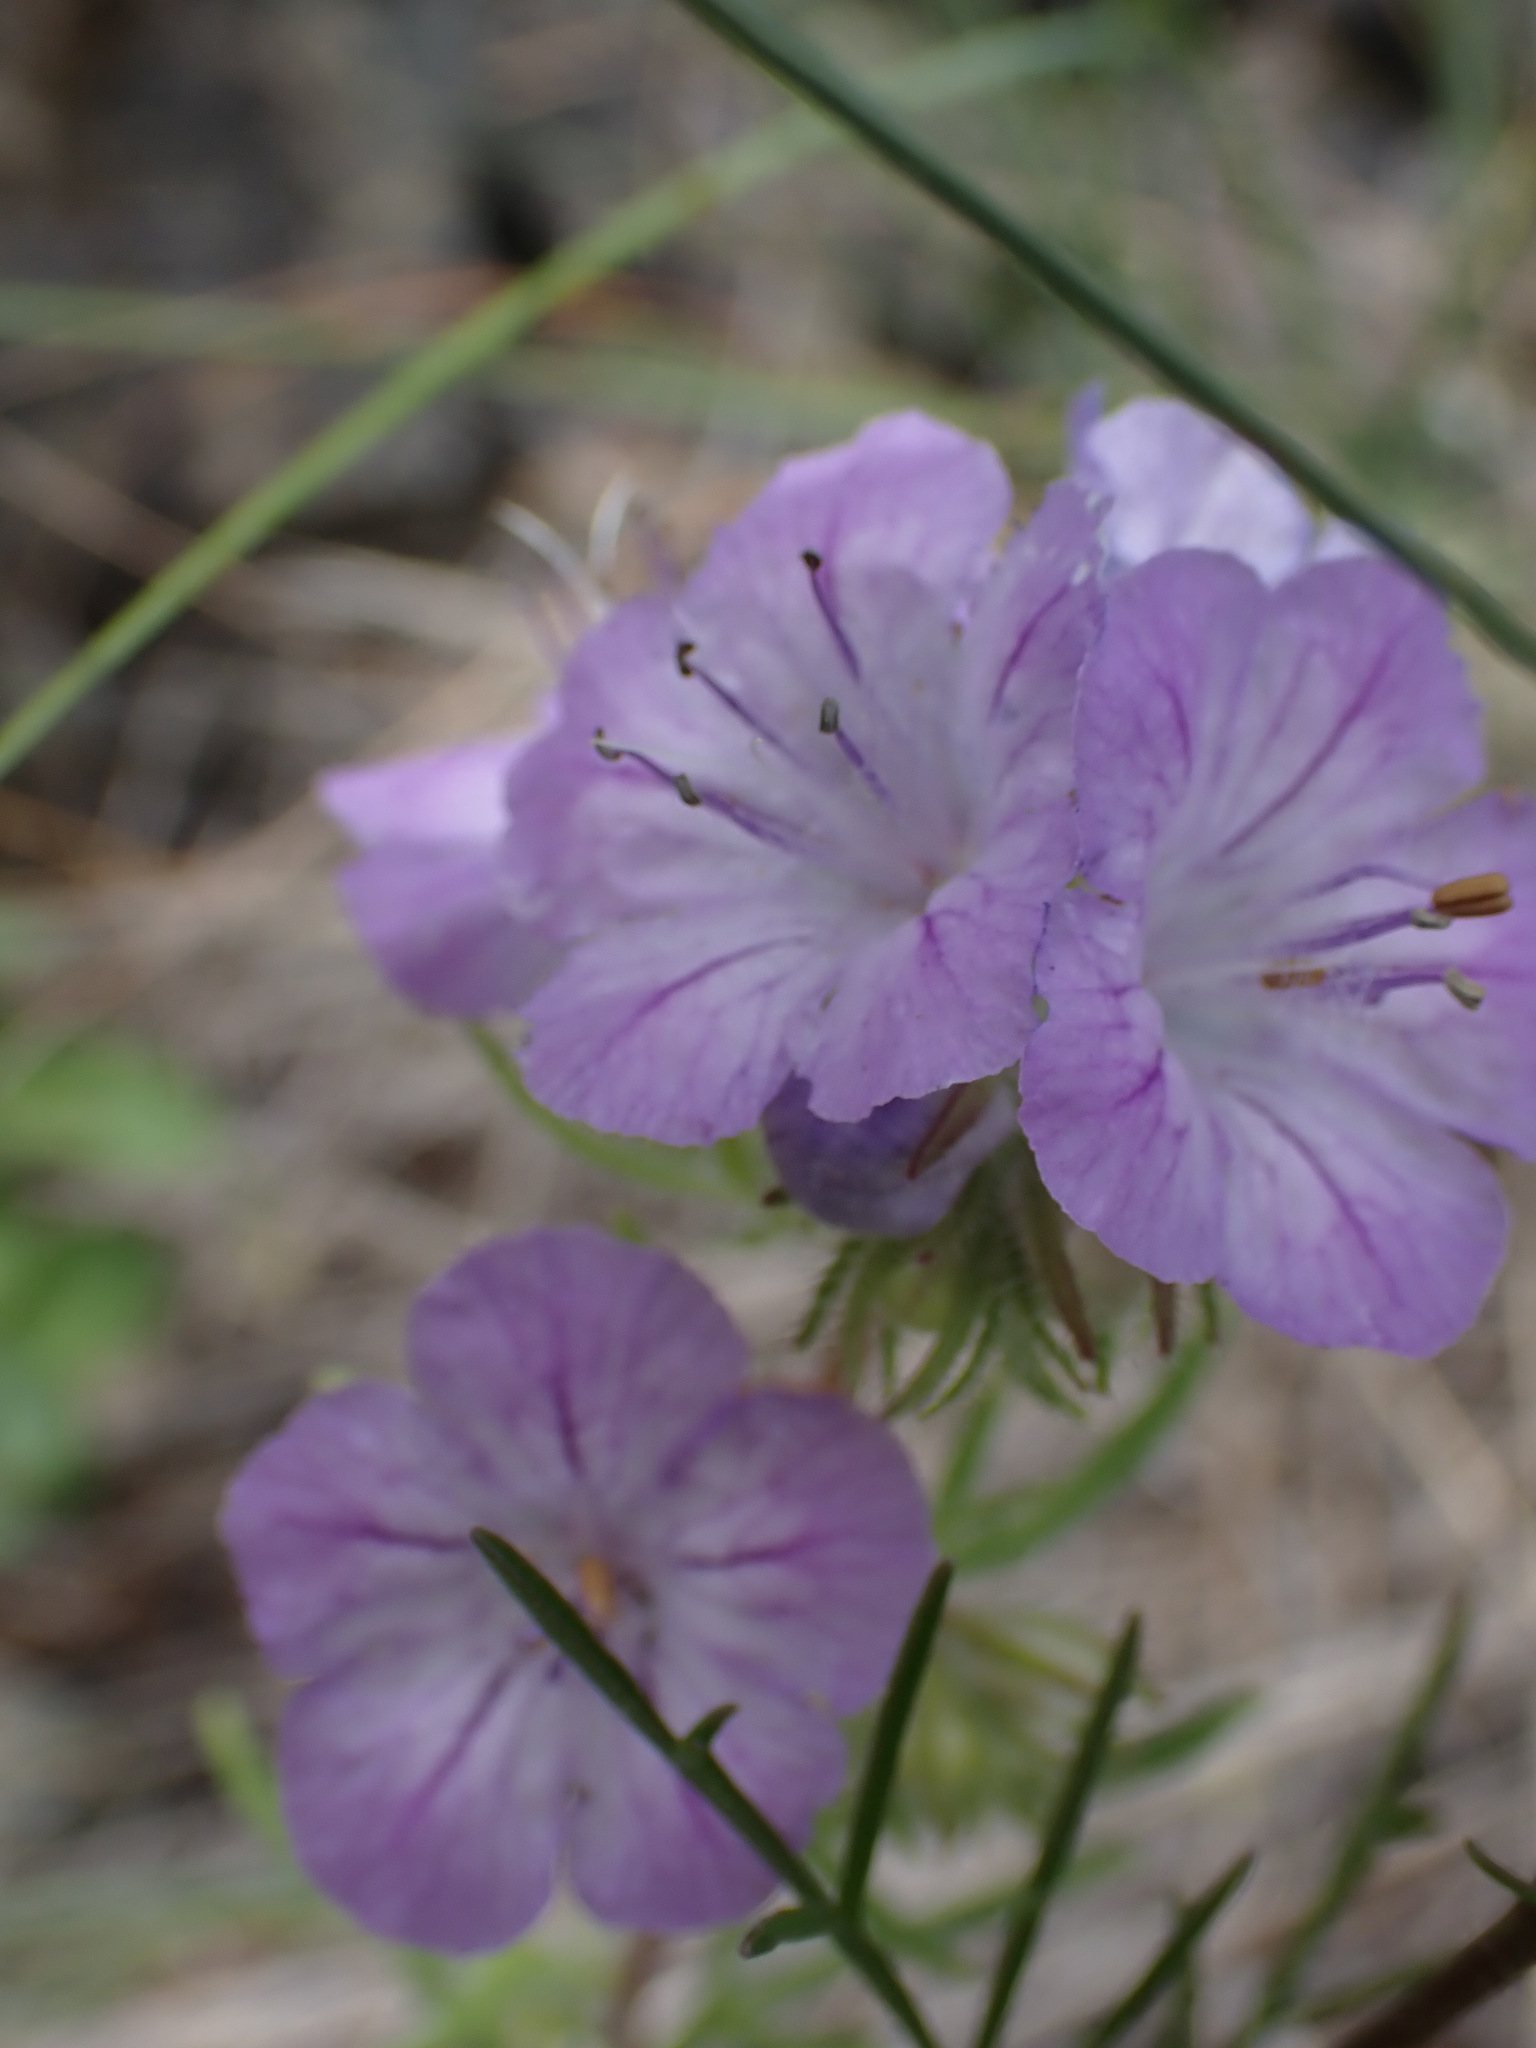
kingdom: Plantae
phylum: Tracheophyta
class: Magnoliopsida
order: Boraginales
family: Hydrophyllaceae
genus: Phacelia
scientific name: Phacelia linearis
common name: Linear-leaved phacelia
